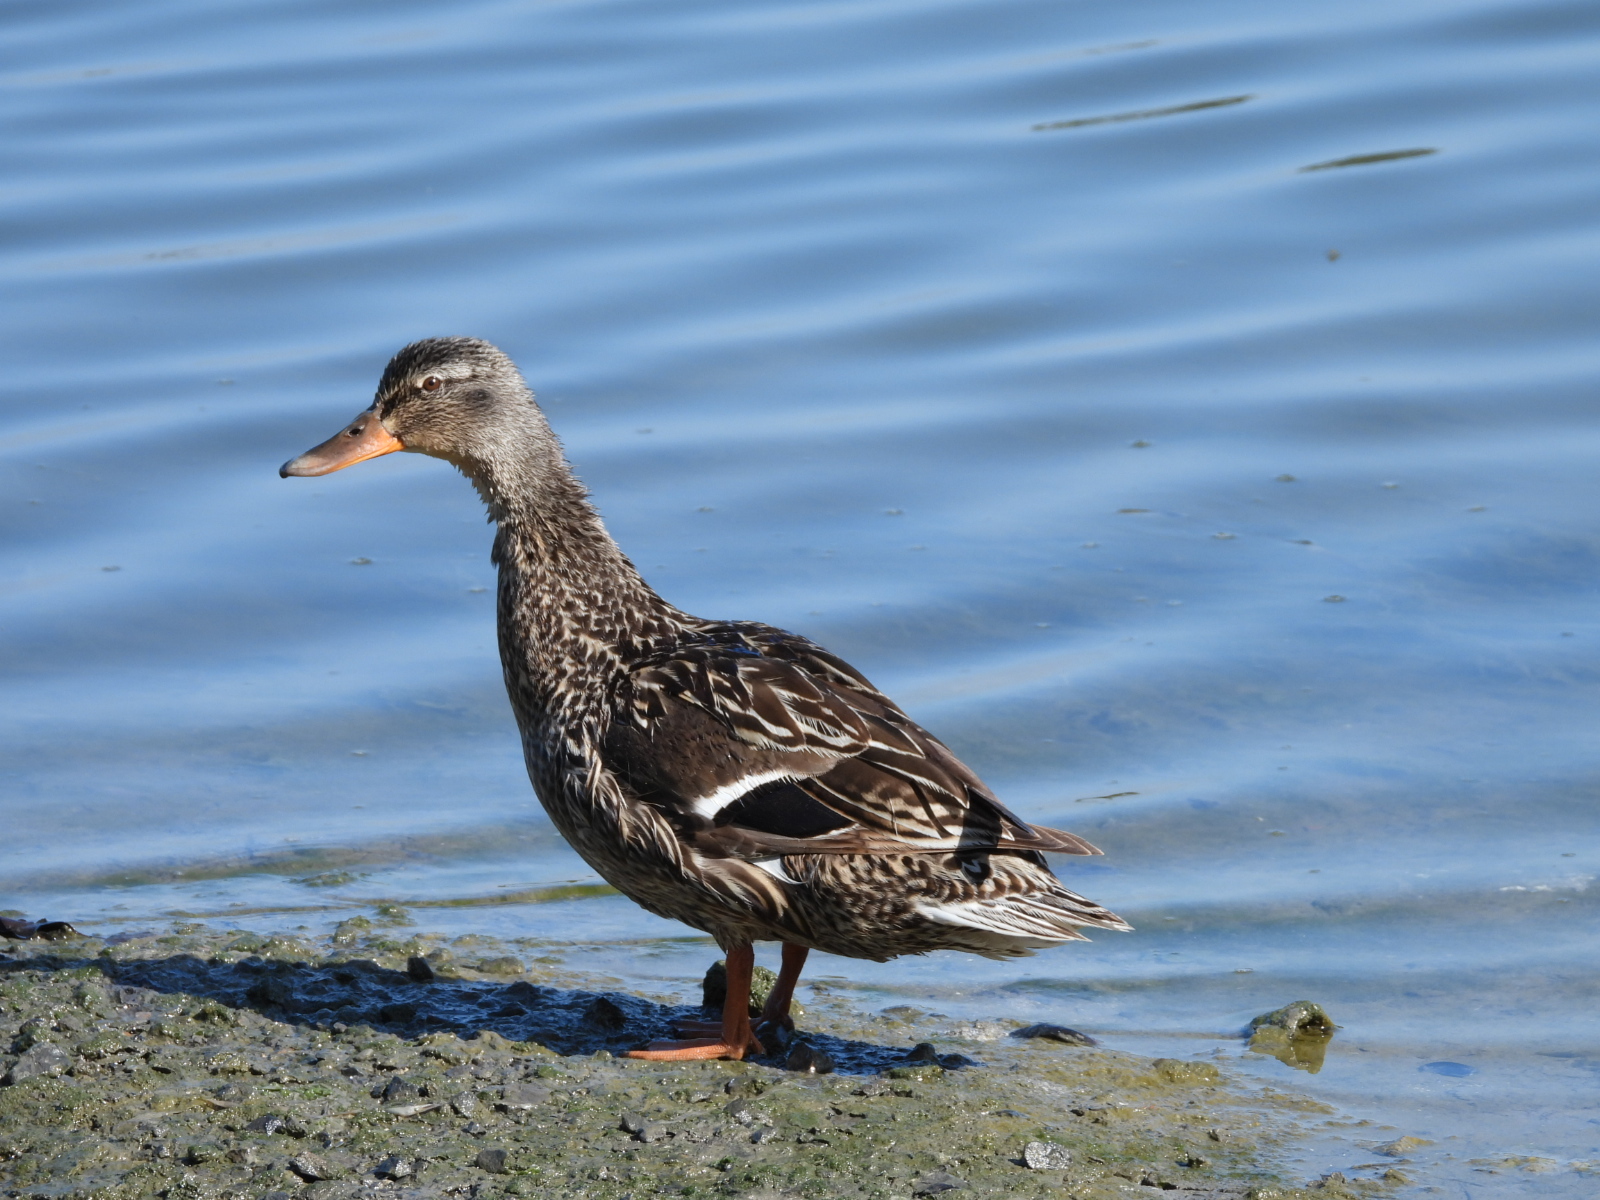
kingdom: Animalia
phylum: Chordata
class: Aves
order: Anseriformes
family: Anatidae
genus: Anas
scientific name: Anas platyrhynchos
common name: Mallard
